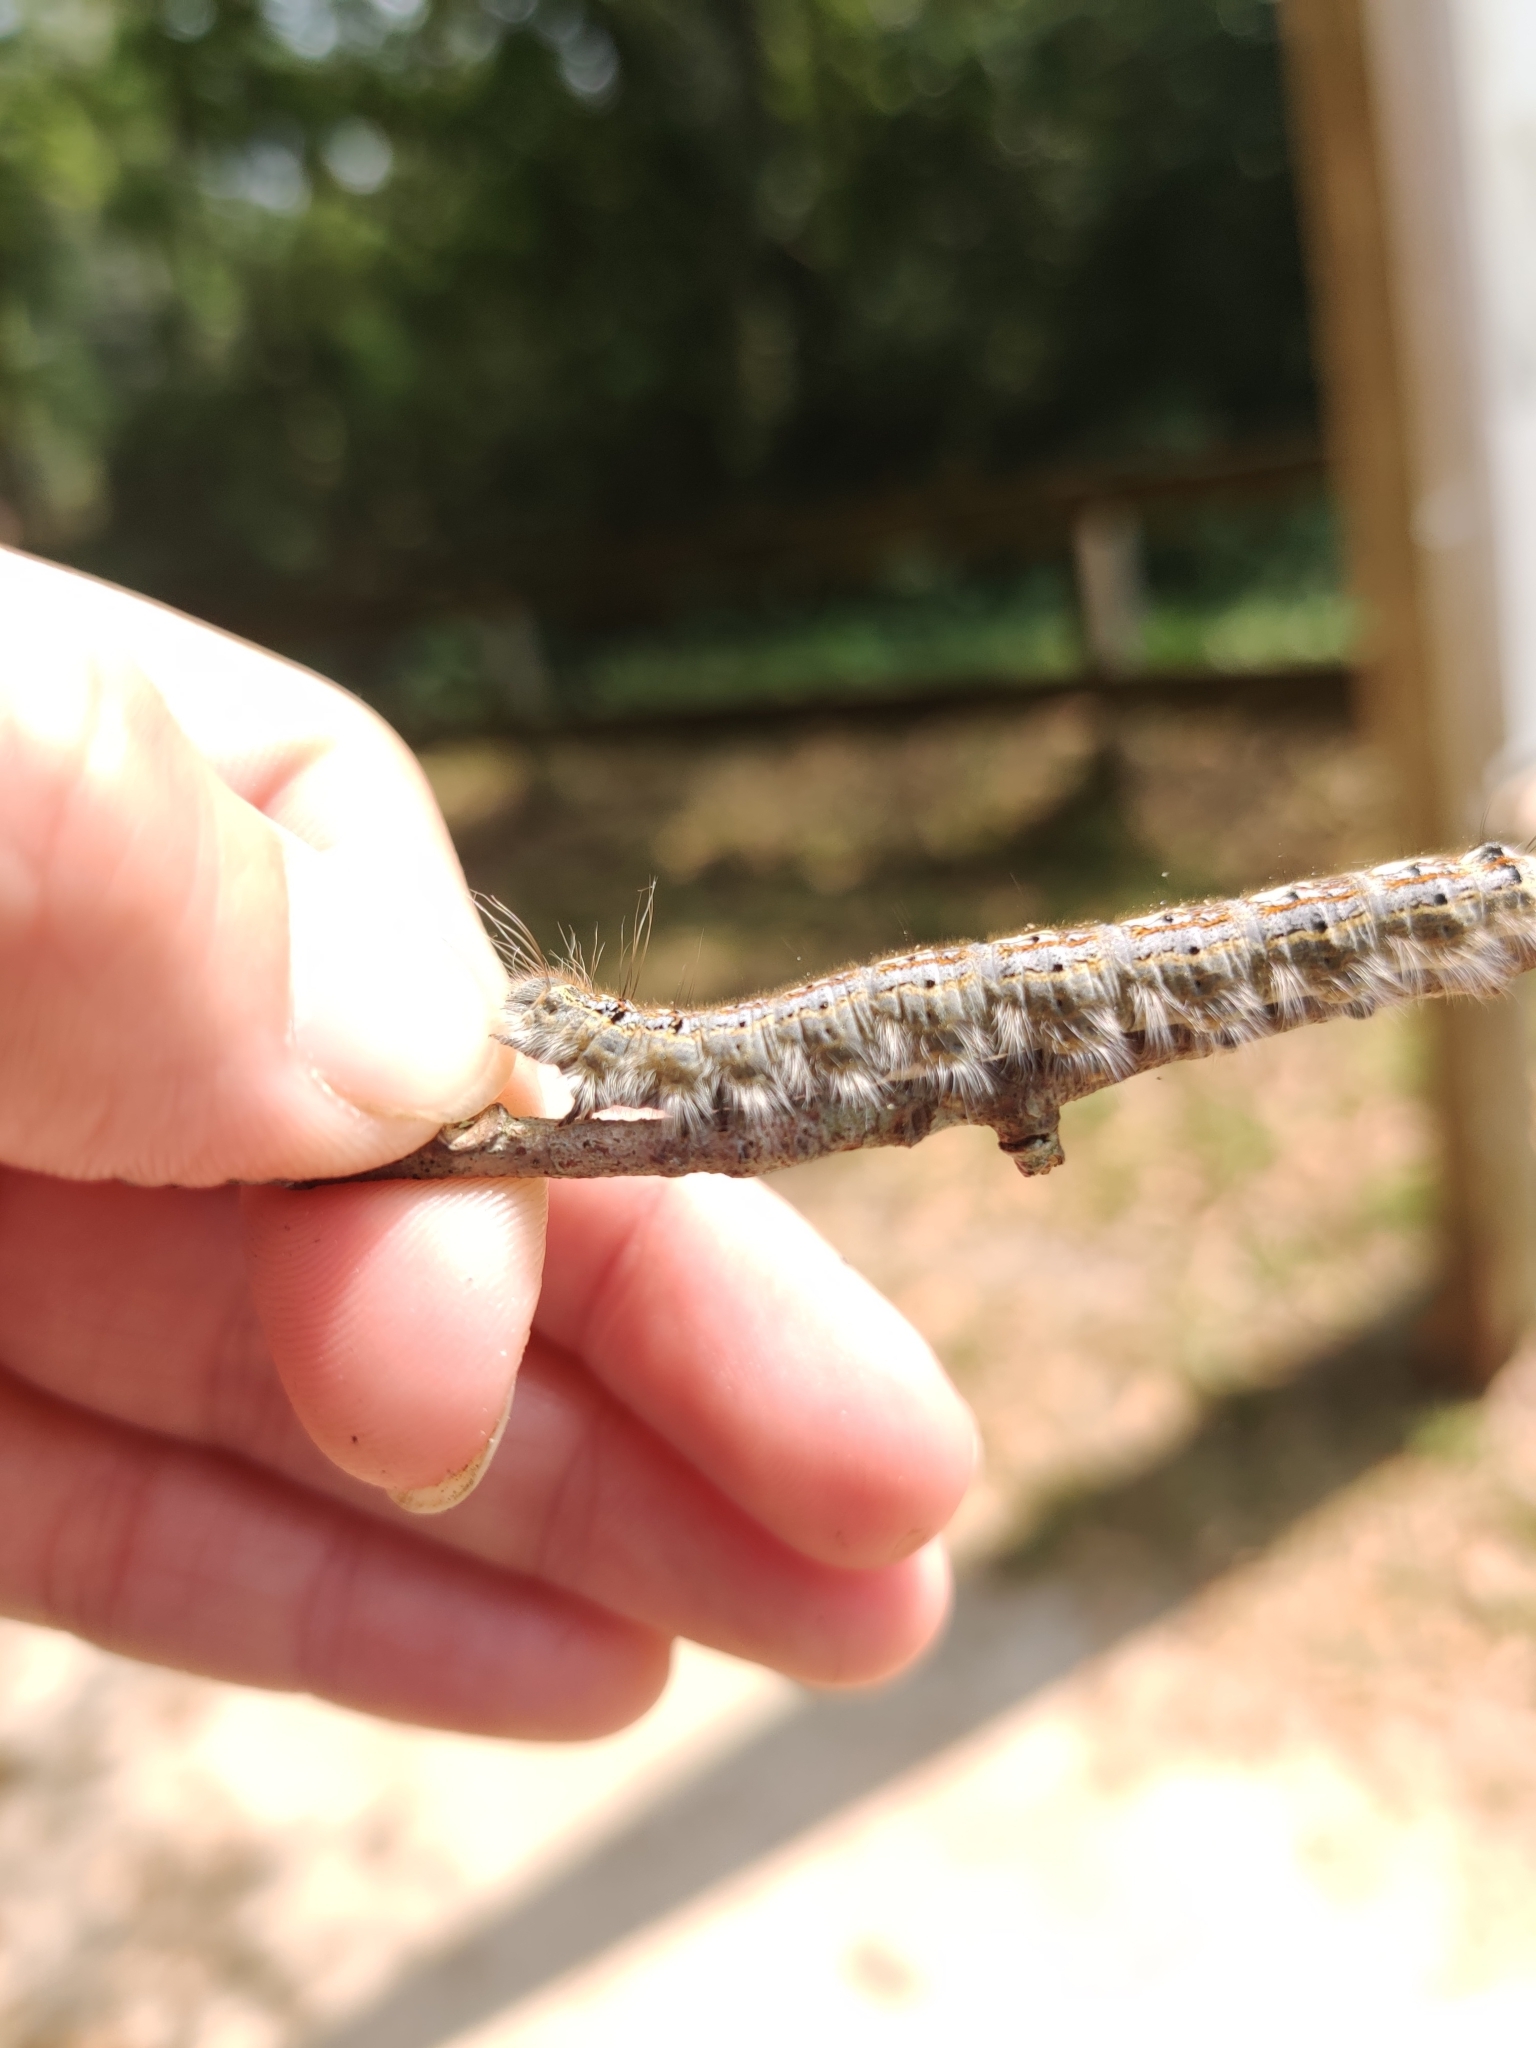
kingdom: Animalia
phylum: Arthropoda
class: Insecta
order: Lepidoptera
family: Lasiocampidae
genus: Malacosoma
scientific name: Malacosoma disstria
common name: Forest tent caterpillar
